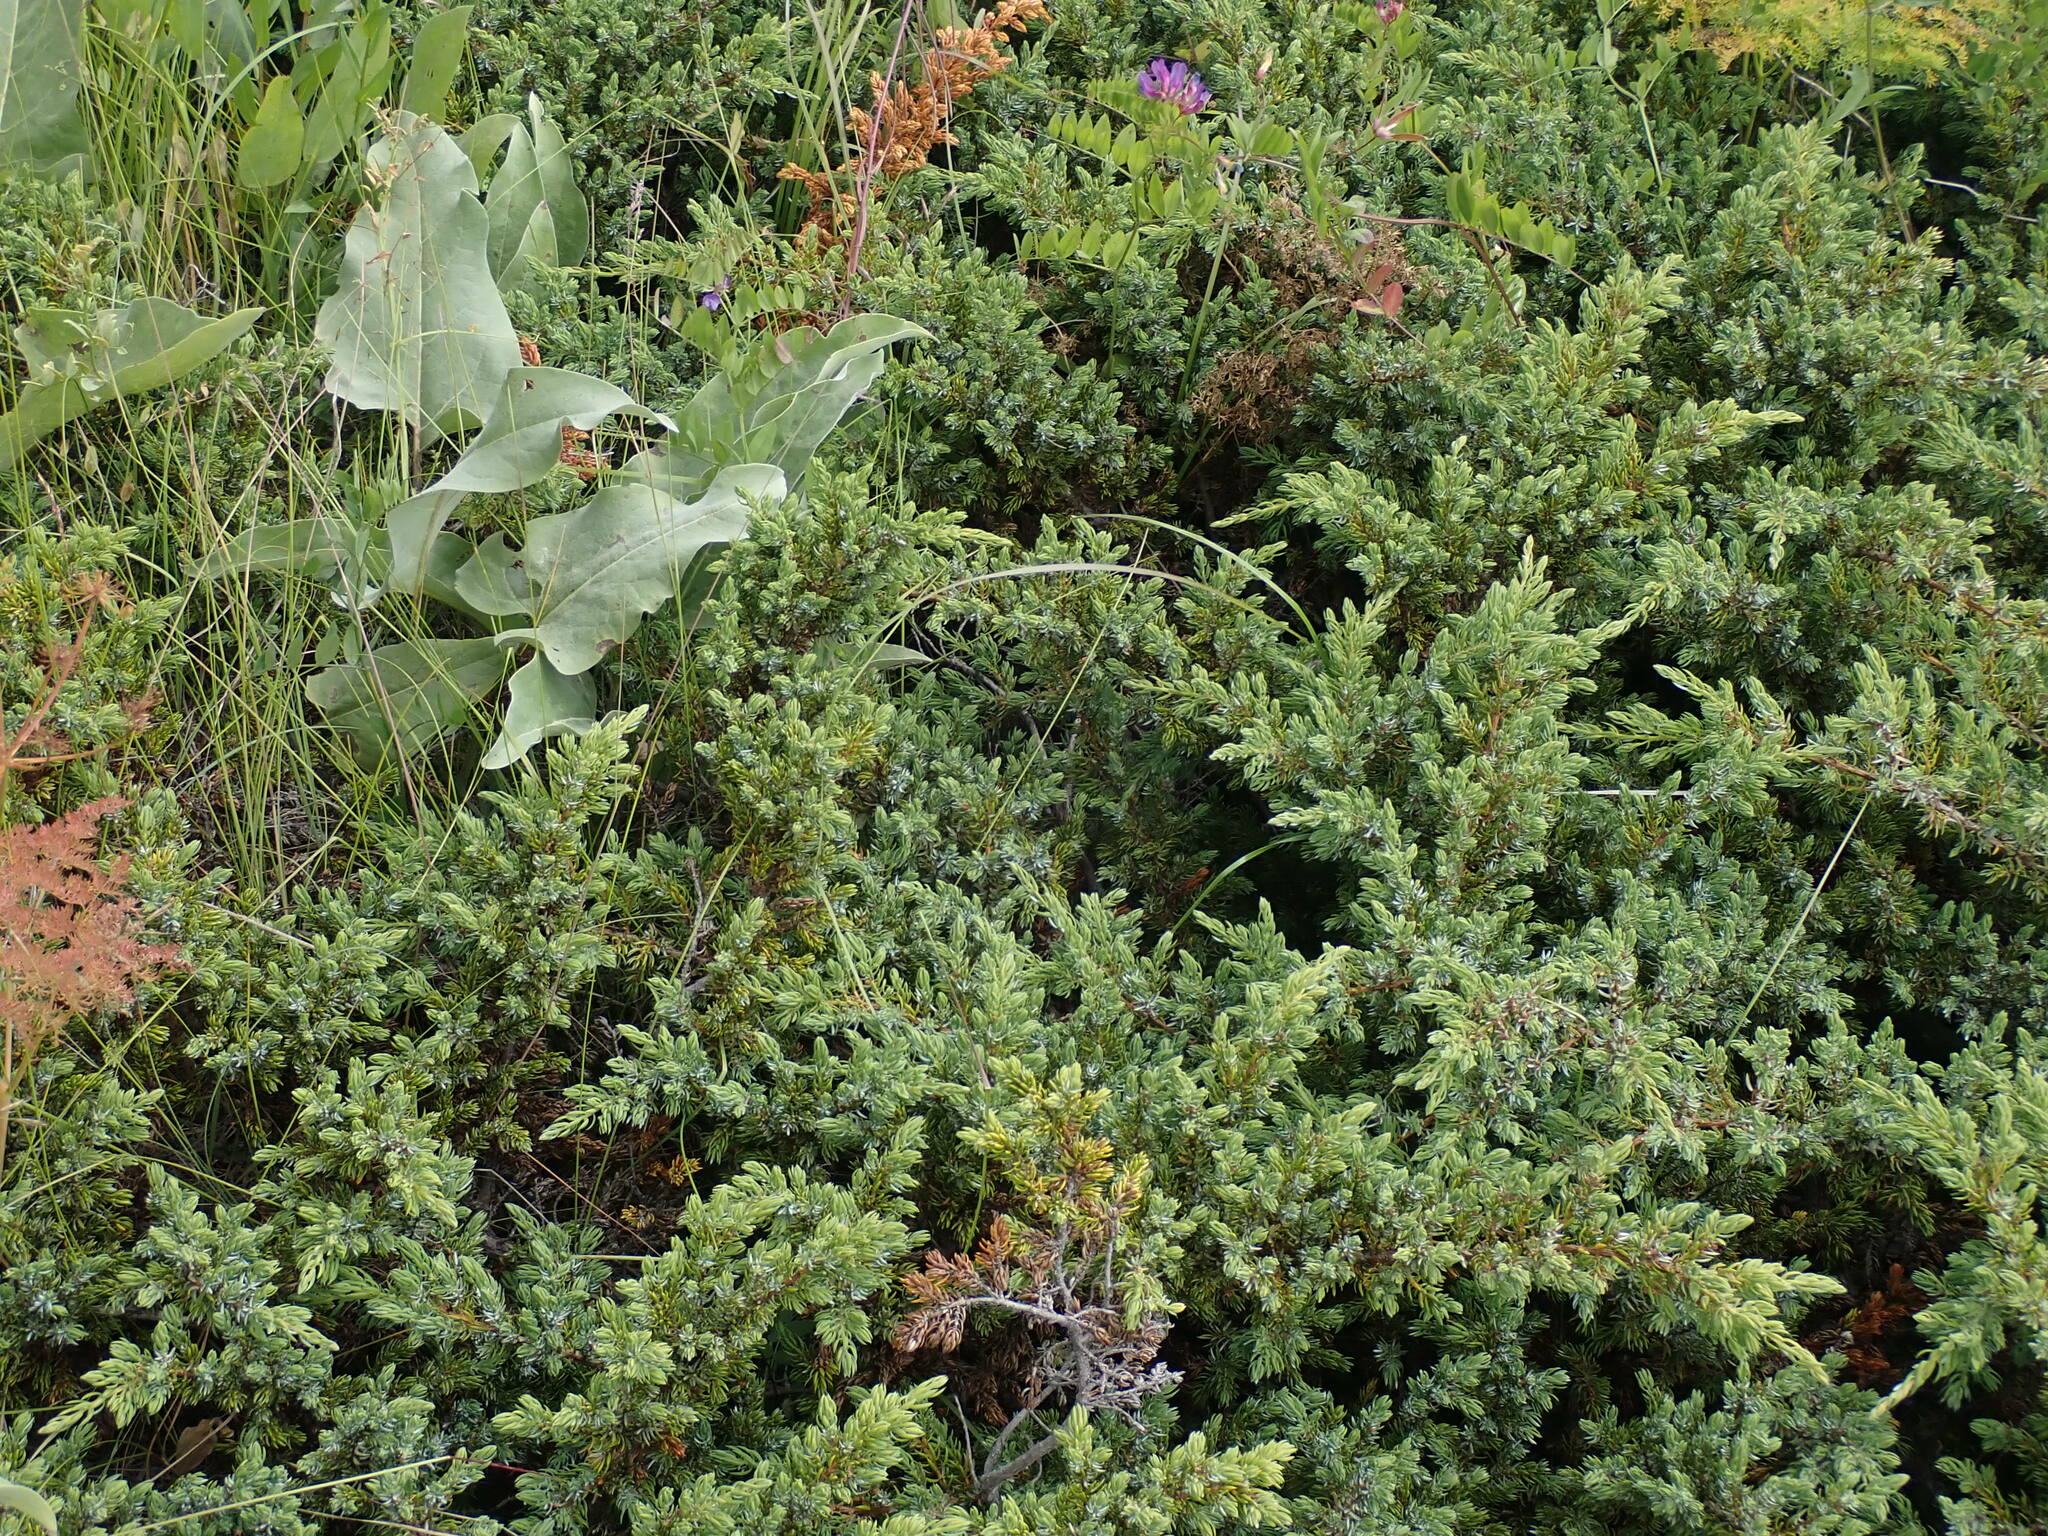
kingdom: Plantae
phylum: Tracheophyta
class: Pinopsida
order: Pinales
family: Cupressaceae
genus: Juniperus
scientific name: Juniperus communis
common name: Common juniper
